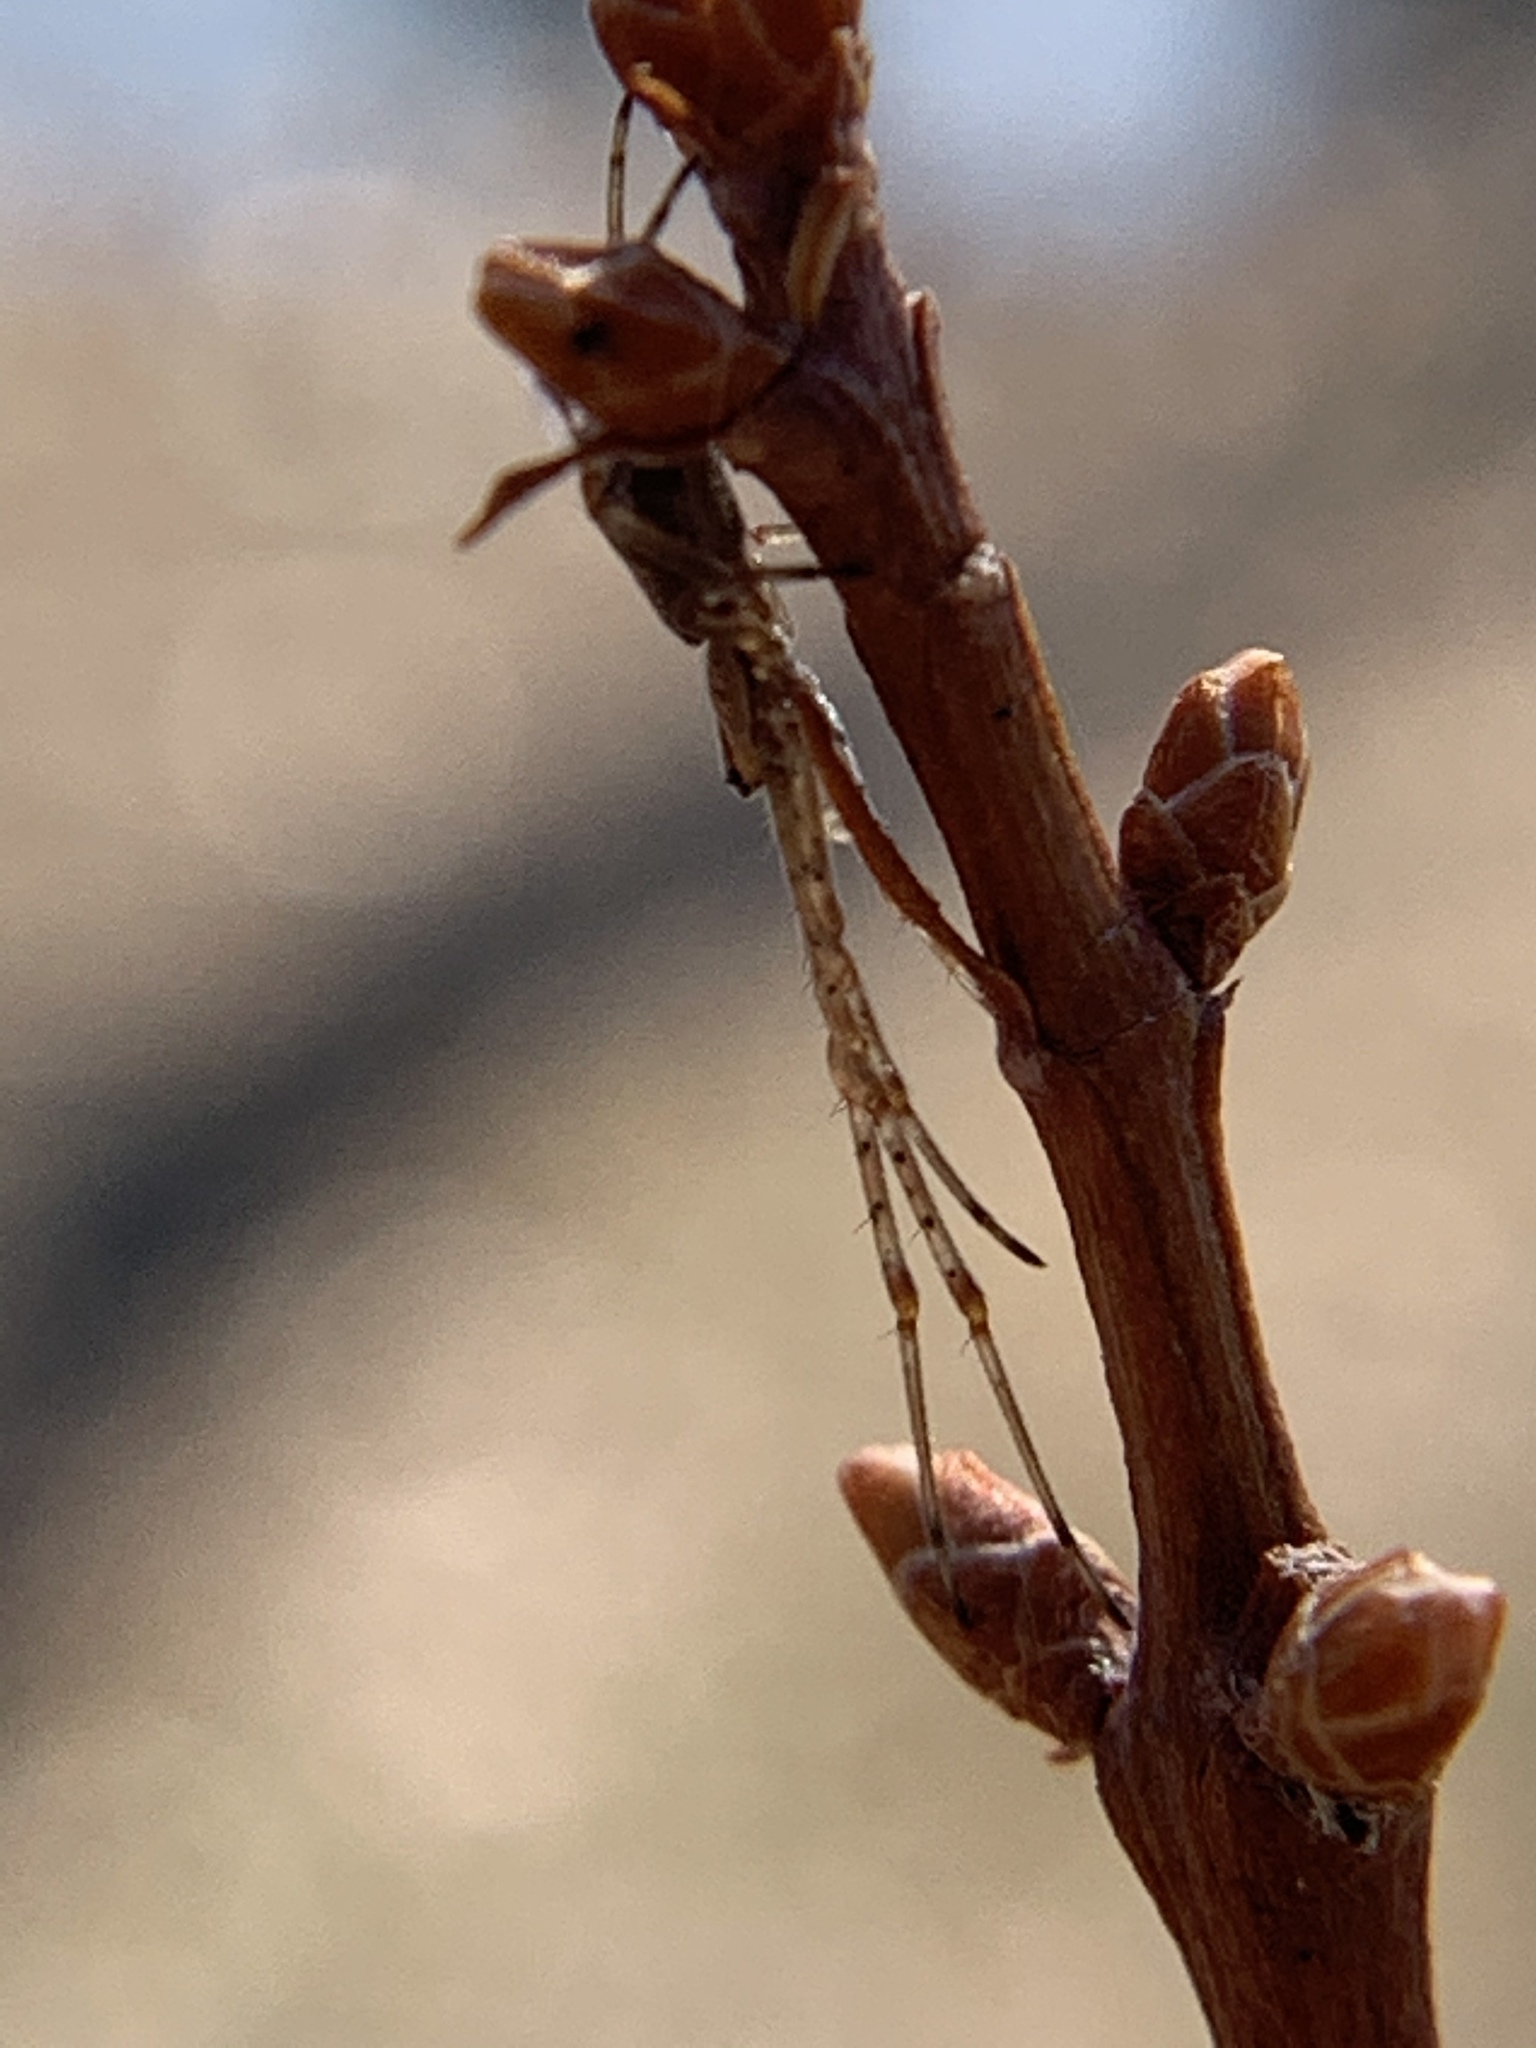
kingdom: Animalia
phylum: Arthropoda
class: Arachnida
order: Araneae
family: Tetragnathidae
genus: Tetragnatha
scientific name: Tetragnatha
